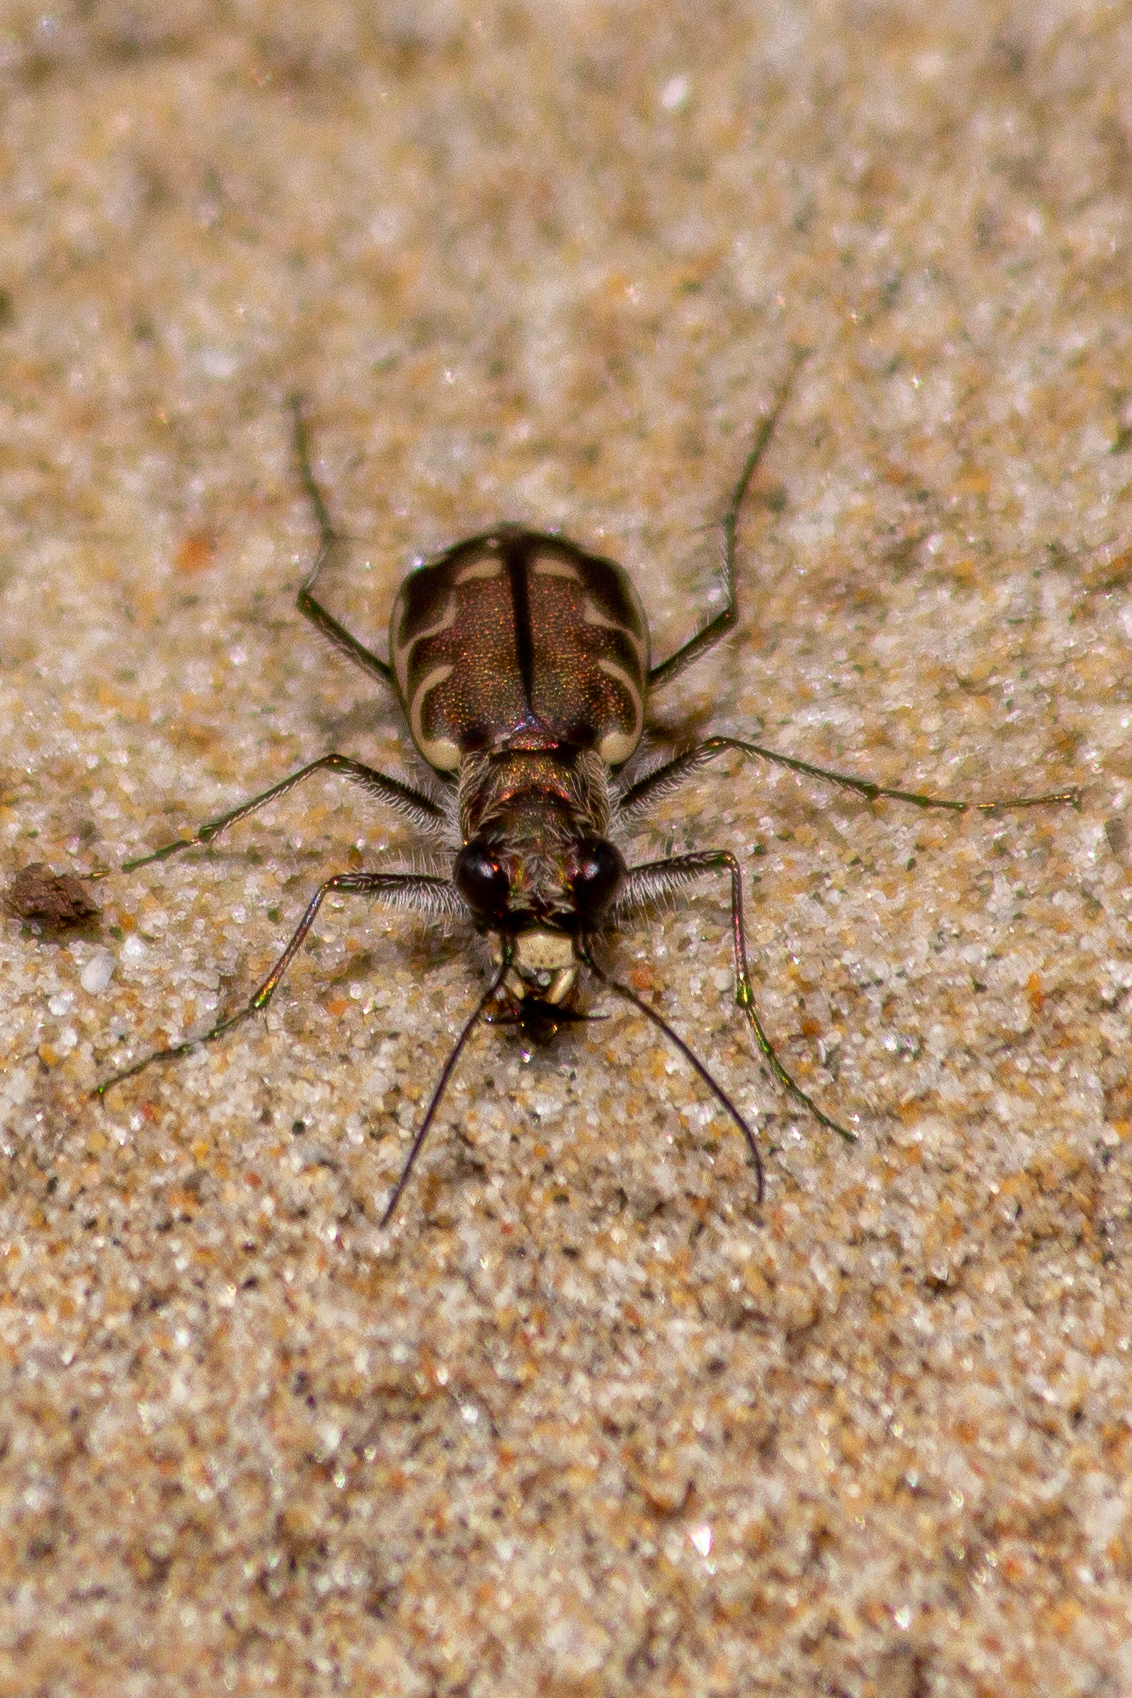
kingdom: Animalia
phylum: Arthropoda
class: Insecta
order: Coleoptera
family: Carabidae
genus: Cicindela
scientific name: Cicindela repanda
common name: Bronzed tiger beetle
